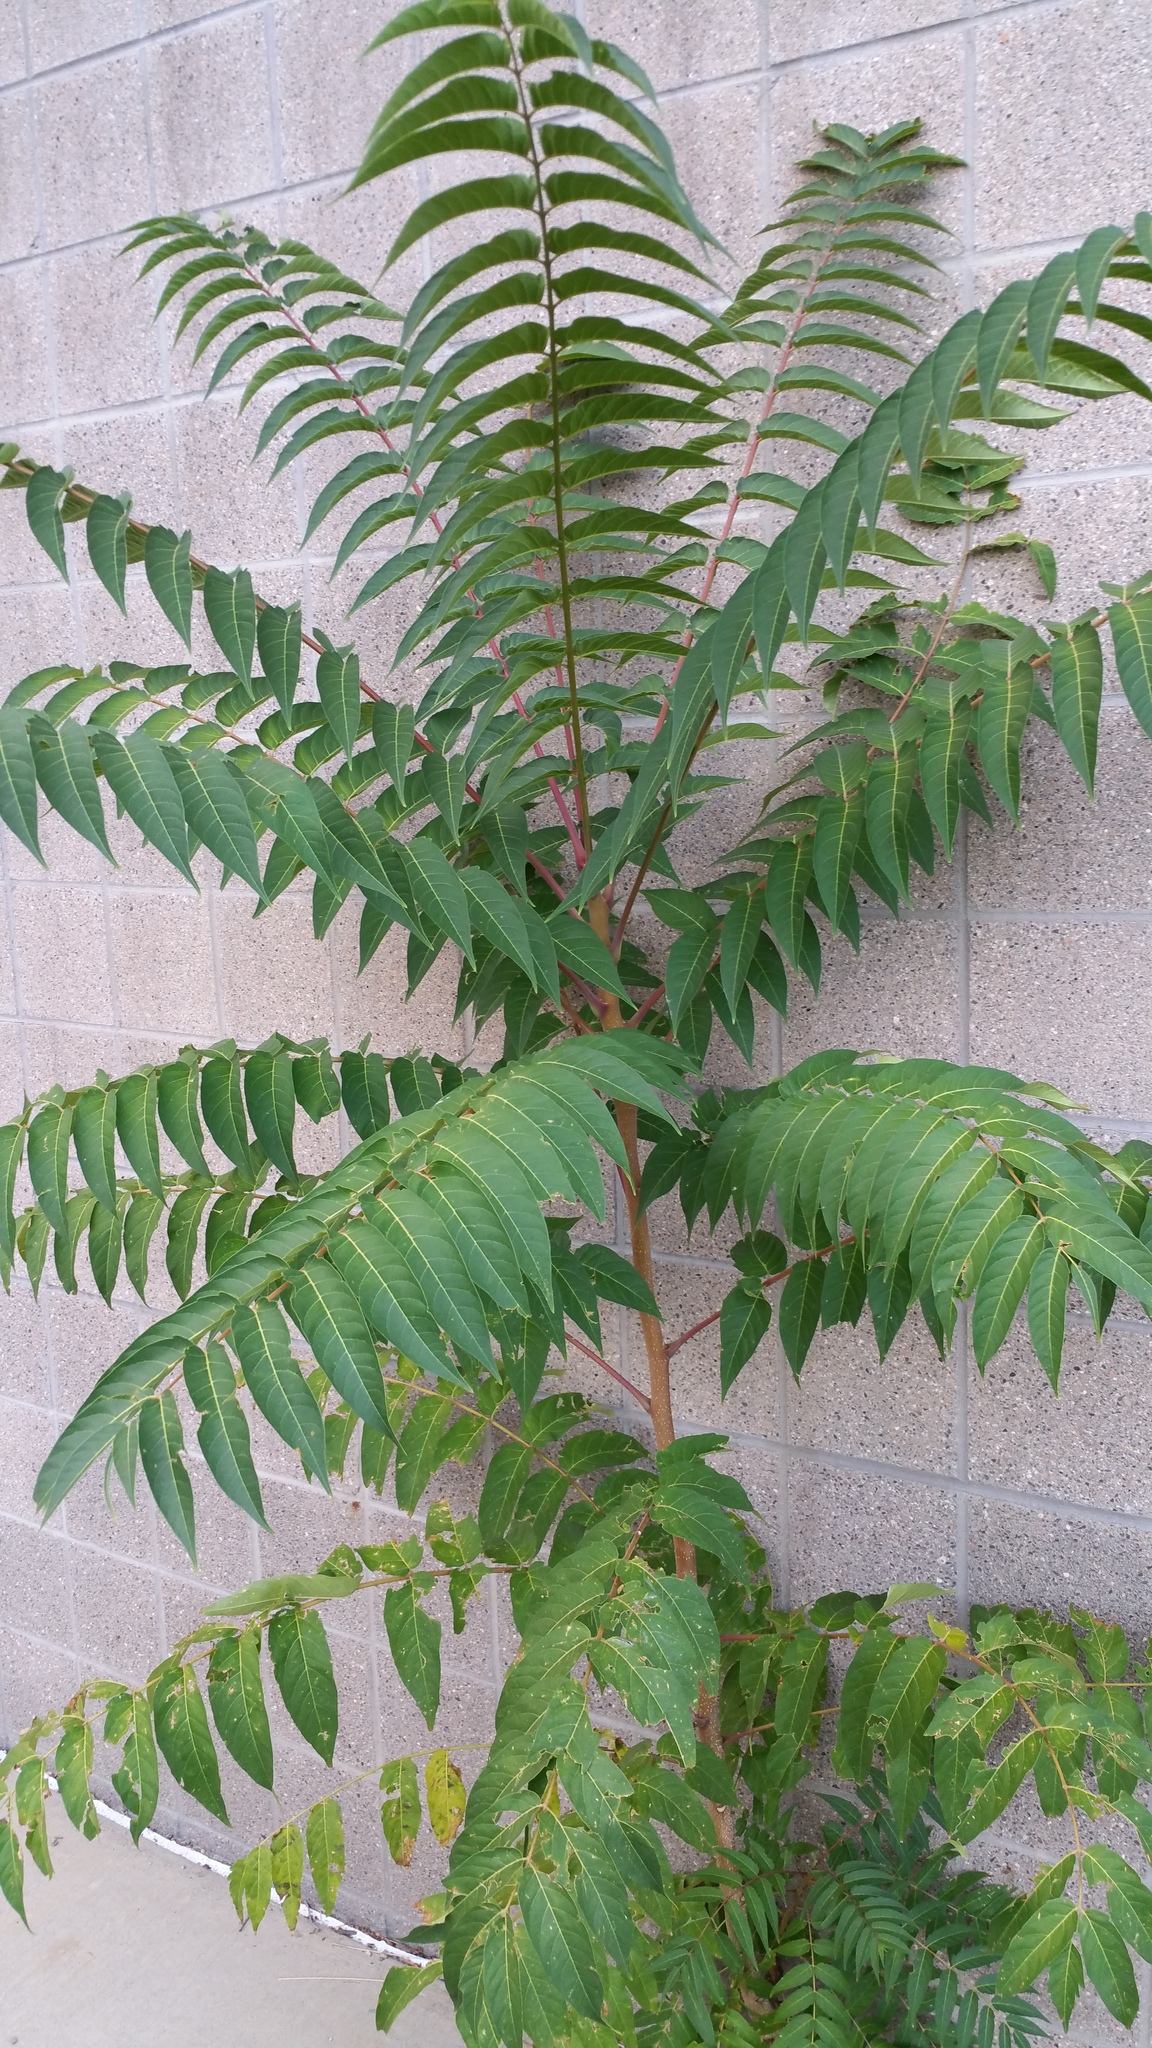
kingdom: Plantae
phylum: Tracheophyta
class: Magnoliopsida
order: Sapindales
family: Simaroubaceae
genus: Ailanthus
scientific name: Ailanthus altissima
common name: Tree-of-heaven
